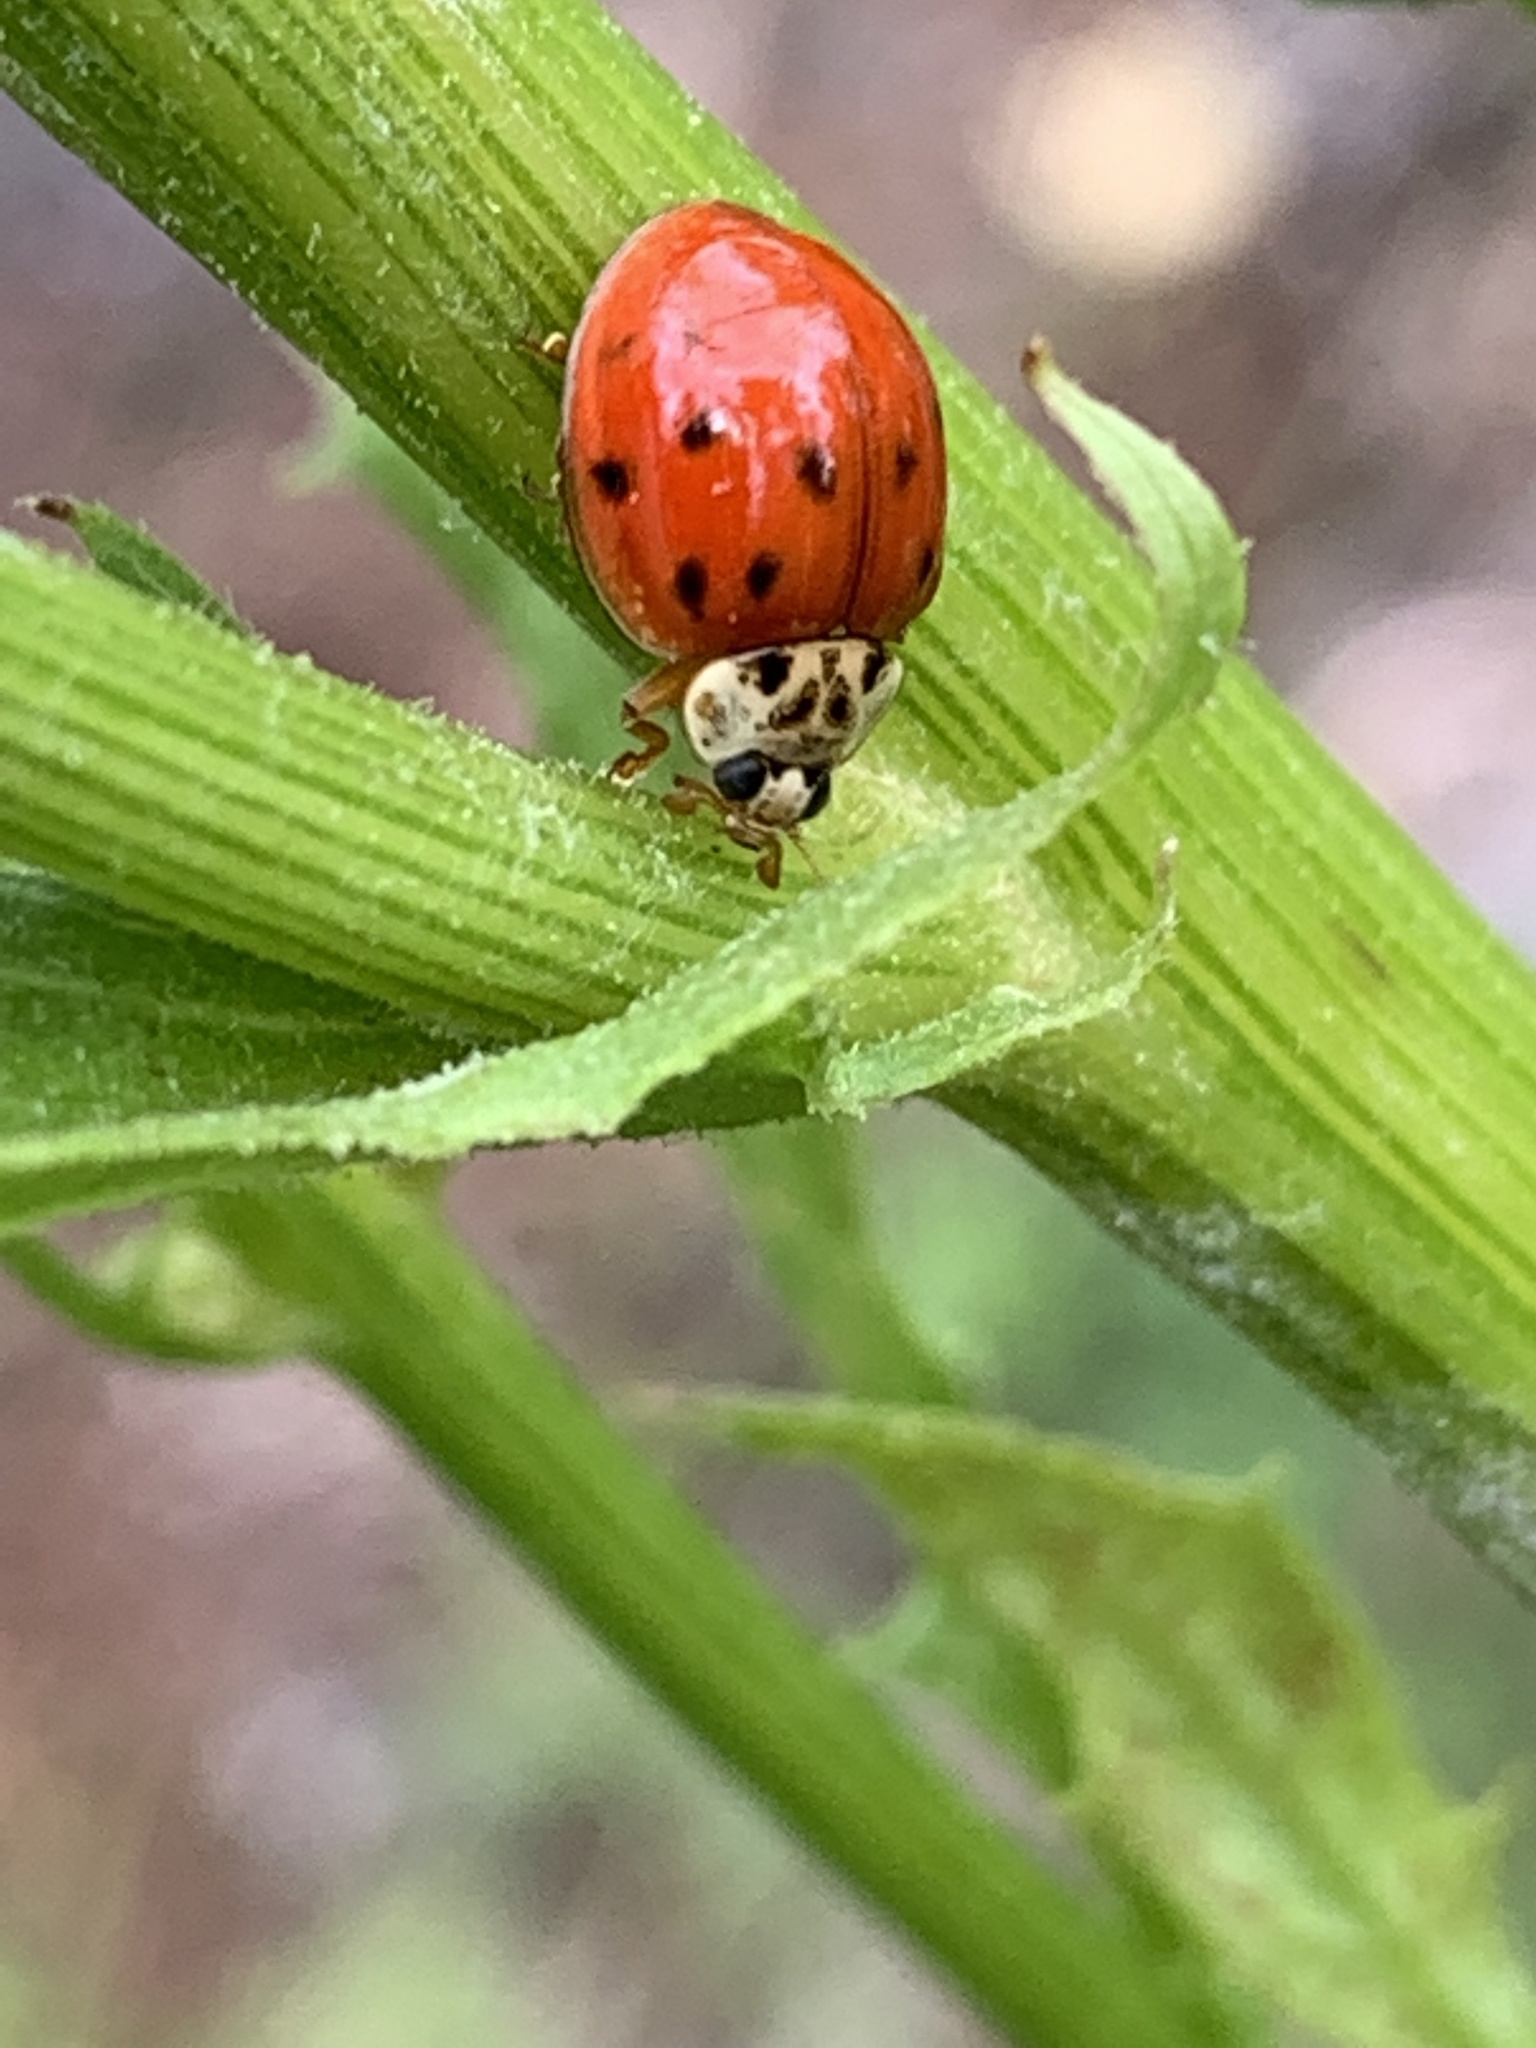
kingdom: Animalia
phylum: Arthropoda
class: Insecta
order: Coleoptera
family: Coccinellidae
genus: Harmonia
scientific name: Harmonia axyridis
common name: Harlequin ladybird
